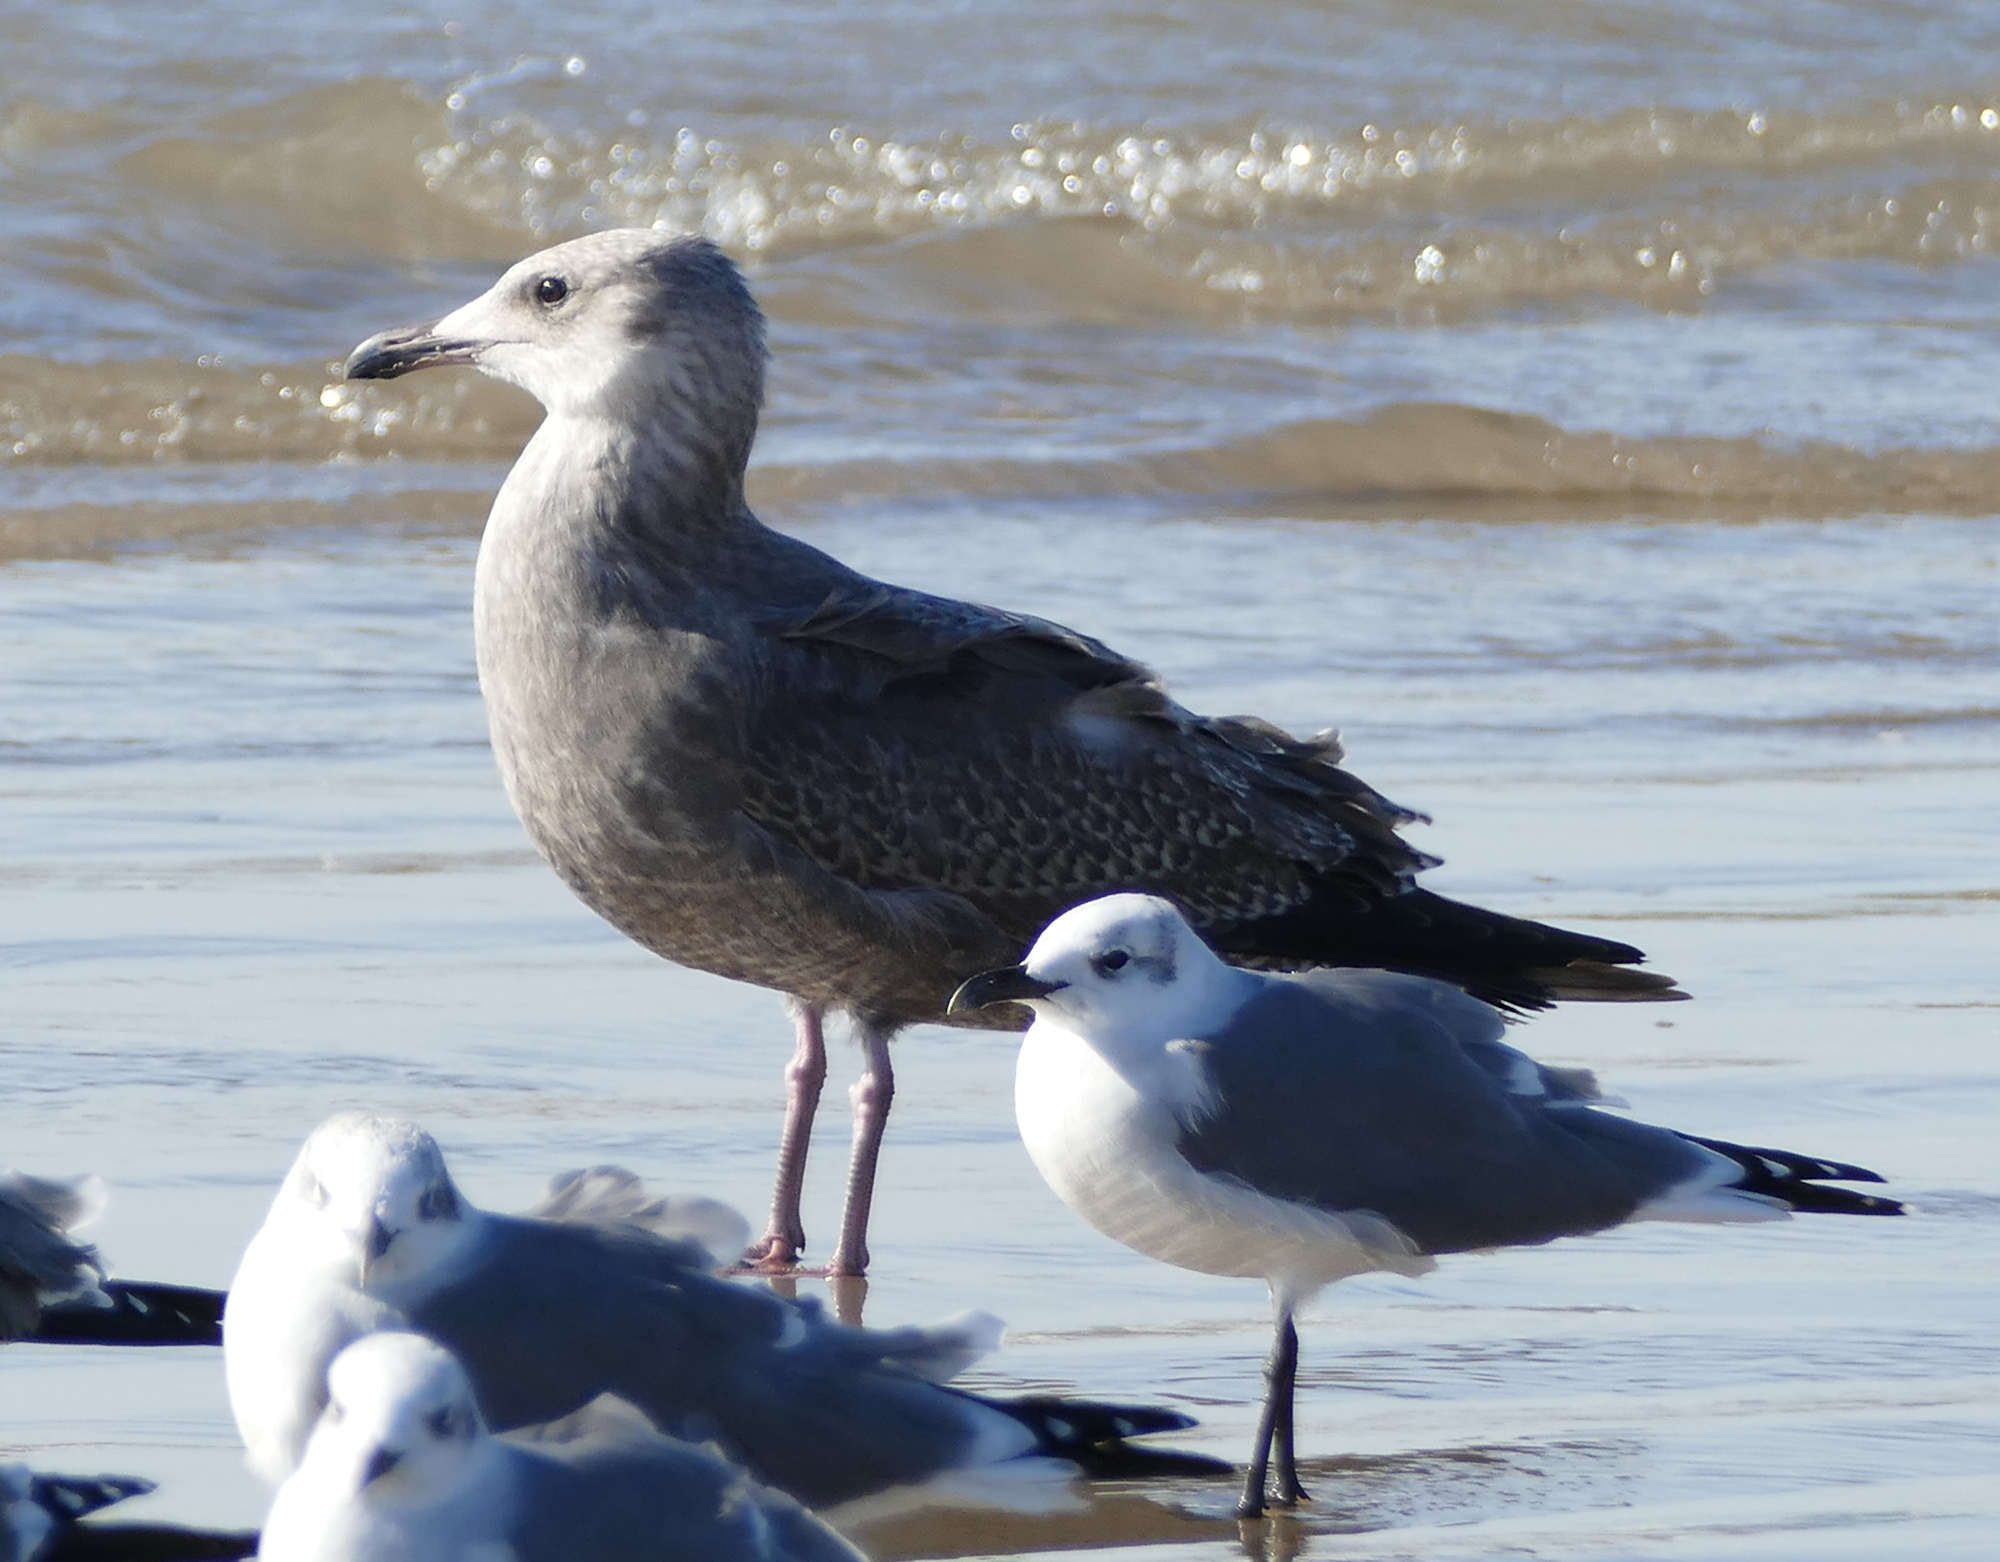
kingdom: Animalia
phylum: Chordata
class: Aves
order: Charadriiformes
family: Laridae
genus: Larus
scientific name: Larus argentatus
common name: Herring gull
